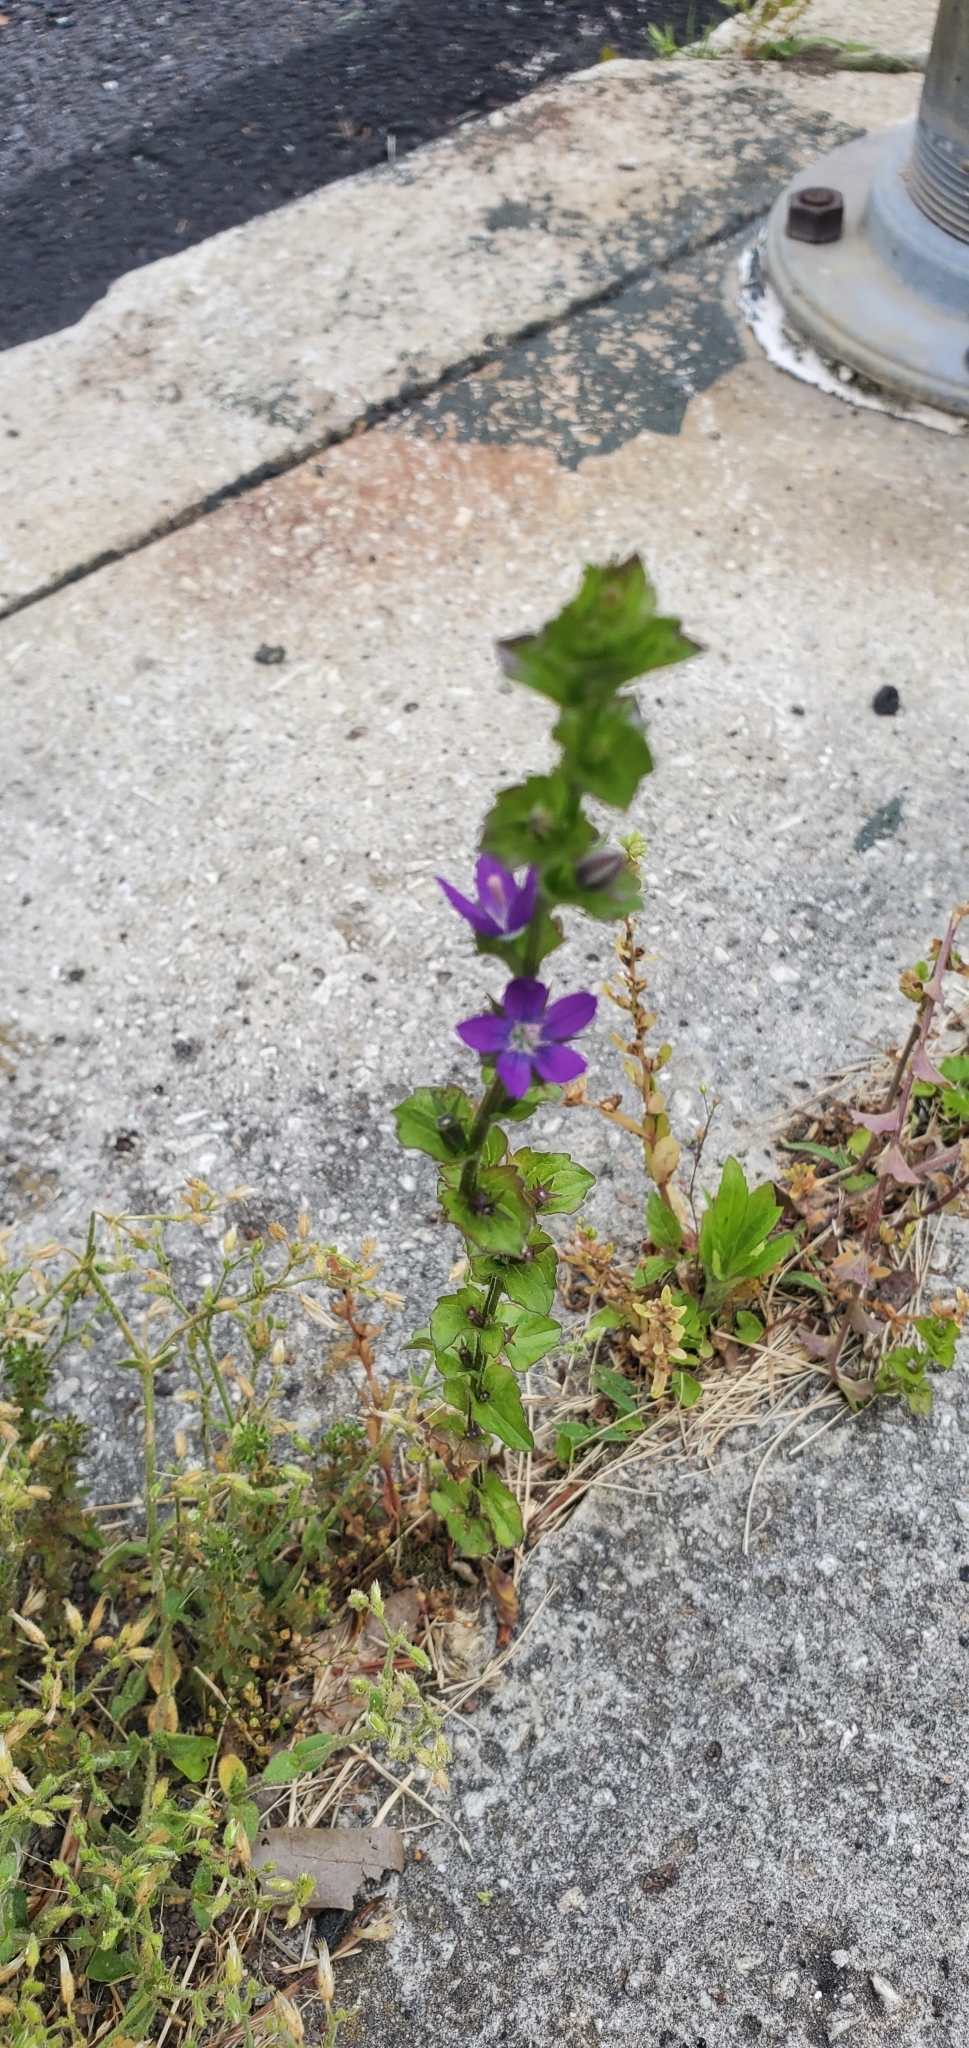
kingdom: Plantae
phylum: Tracheophyta
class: Magnoliopsida
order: Asterales
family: Campanulaceae
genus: Triodanis
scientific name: Triodanis perfoliata
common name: Clasping venus' looking-glass
